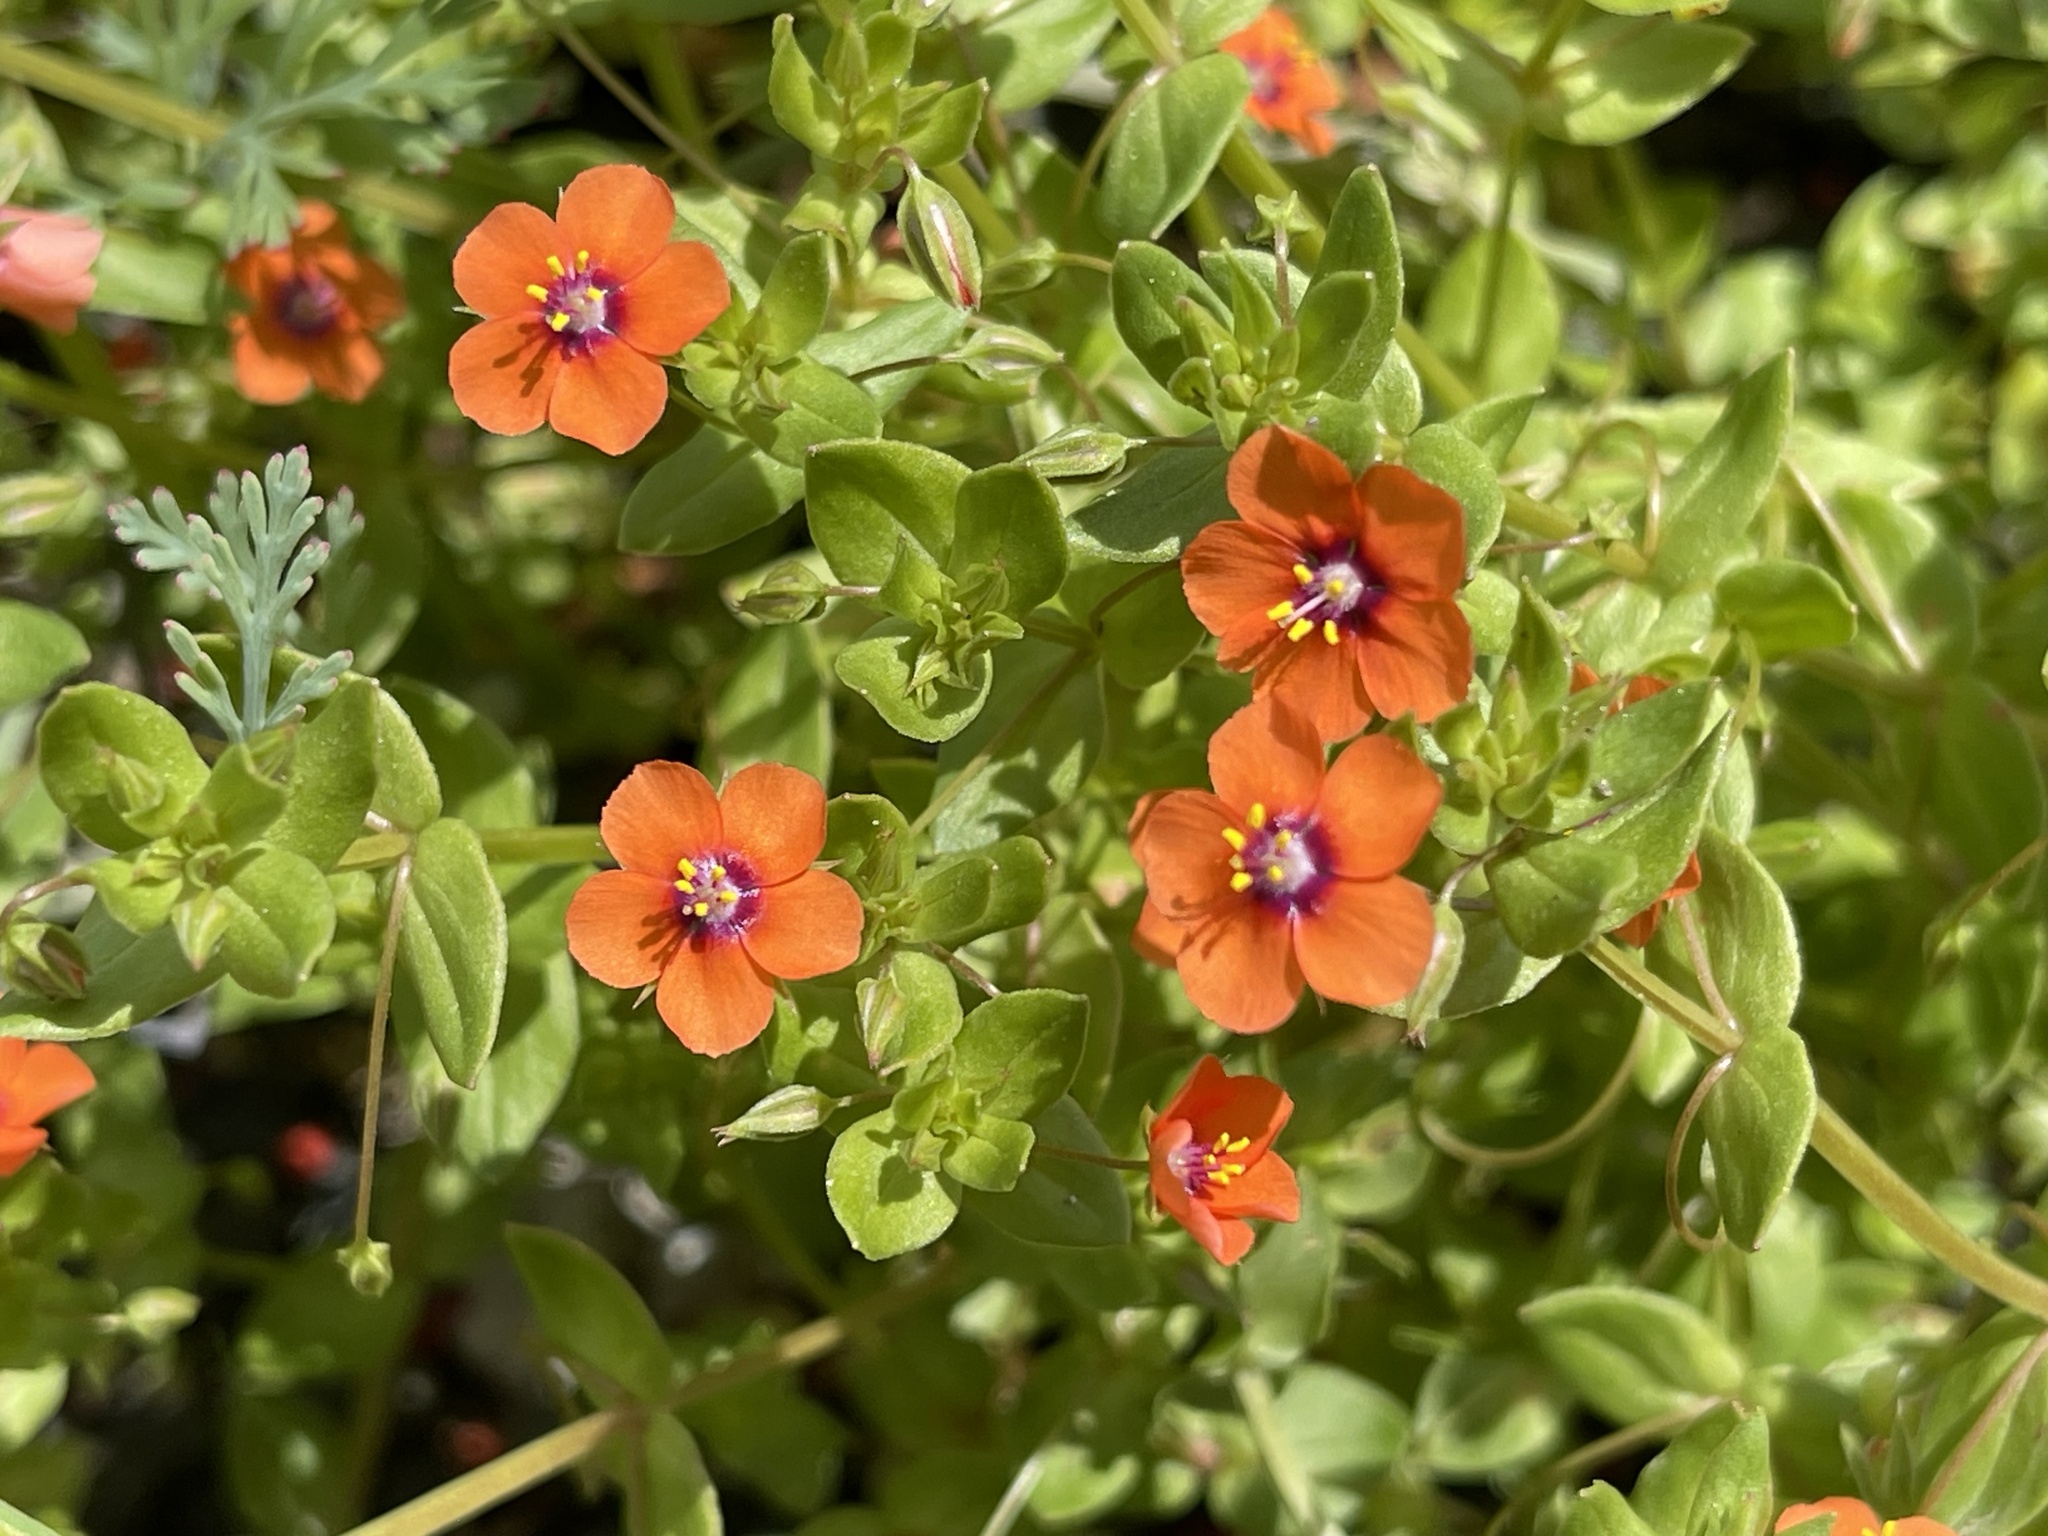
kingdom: Plantae
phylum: Tracheophyta
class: Magnoliopsida
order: Ericales
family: Primulaceae
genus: Lysimachia
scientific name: Lysimachia arvensis
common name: Scarlet pimpernel
